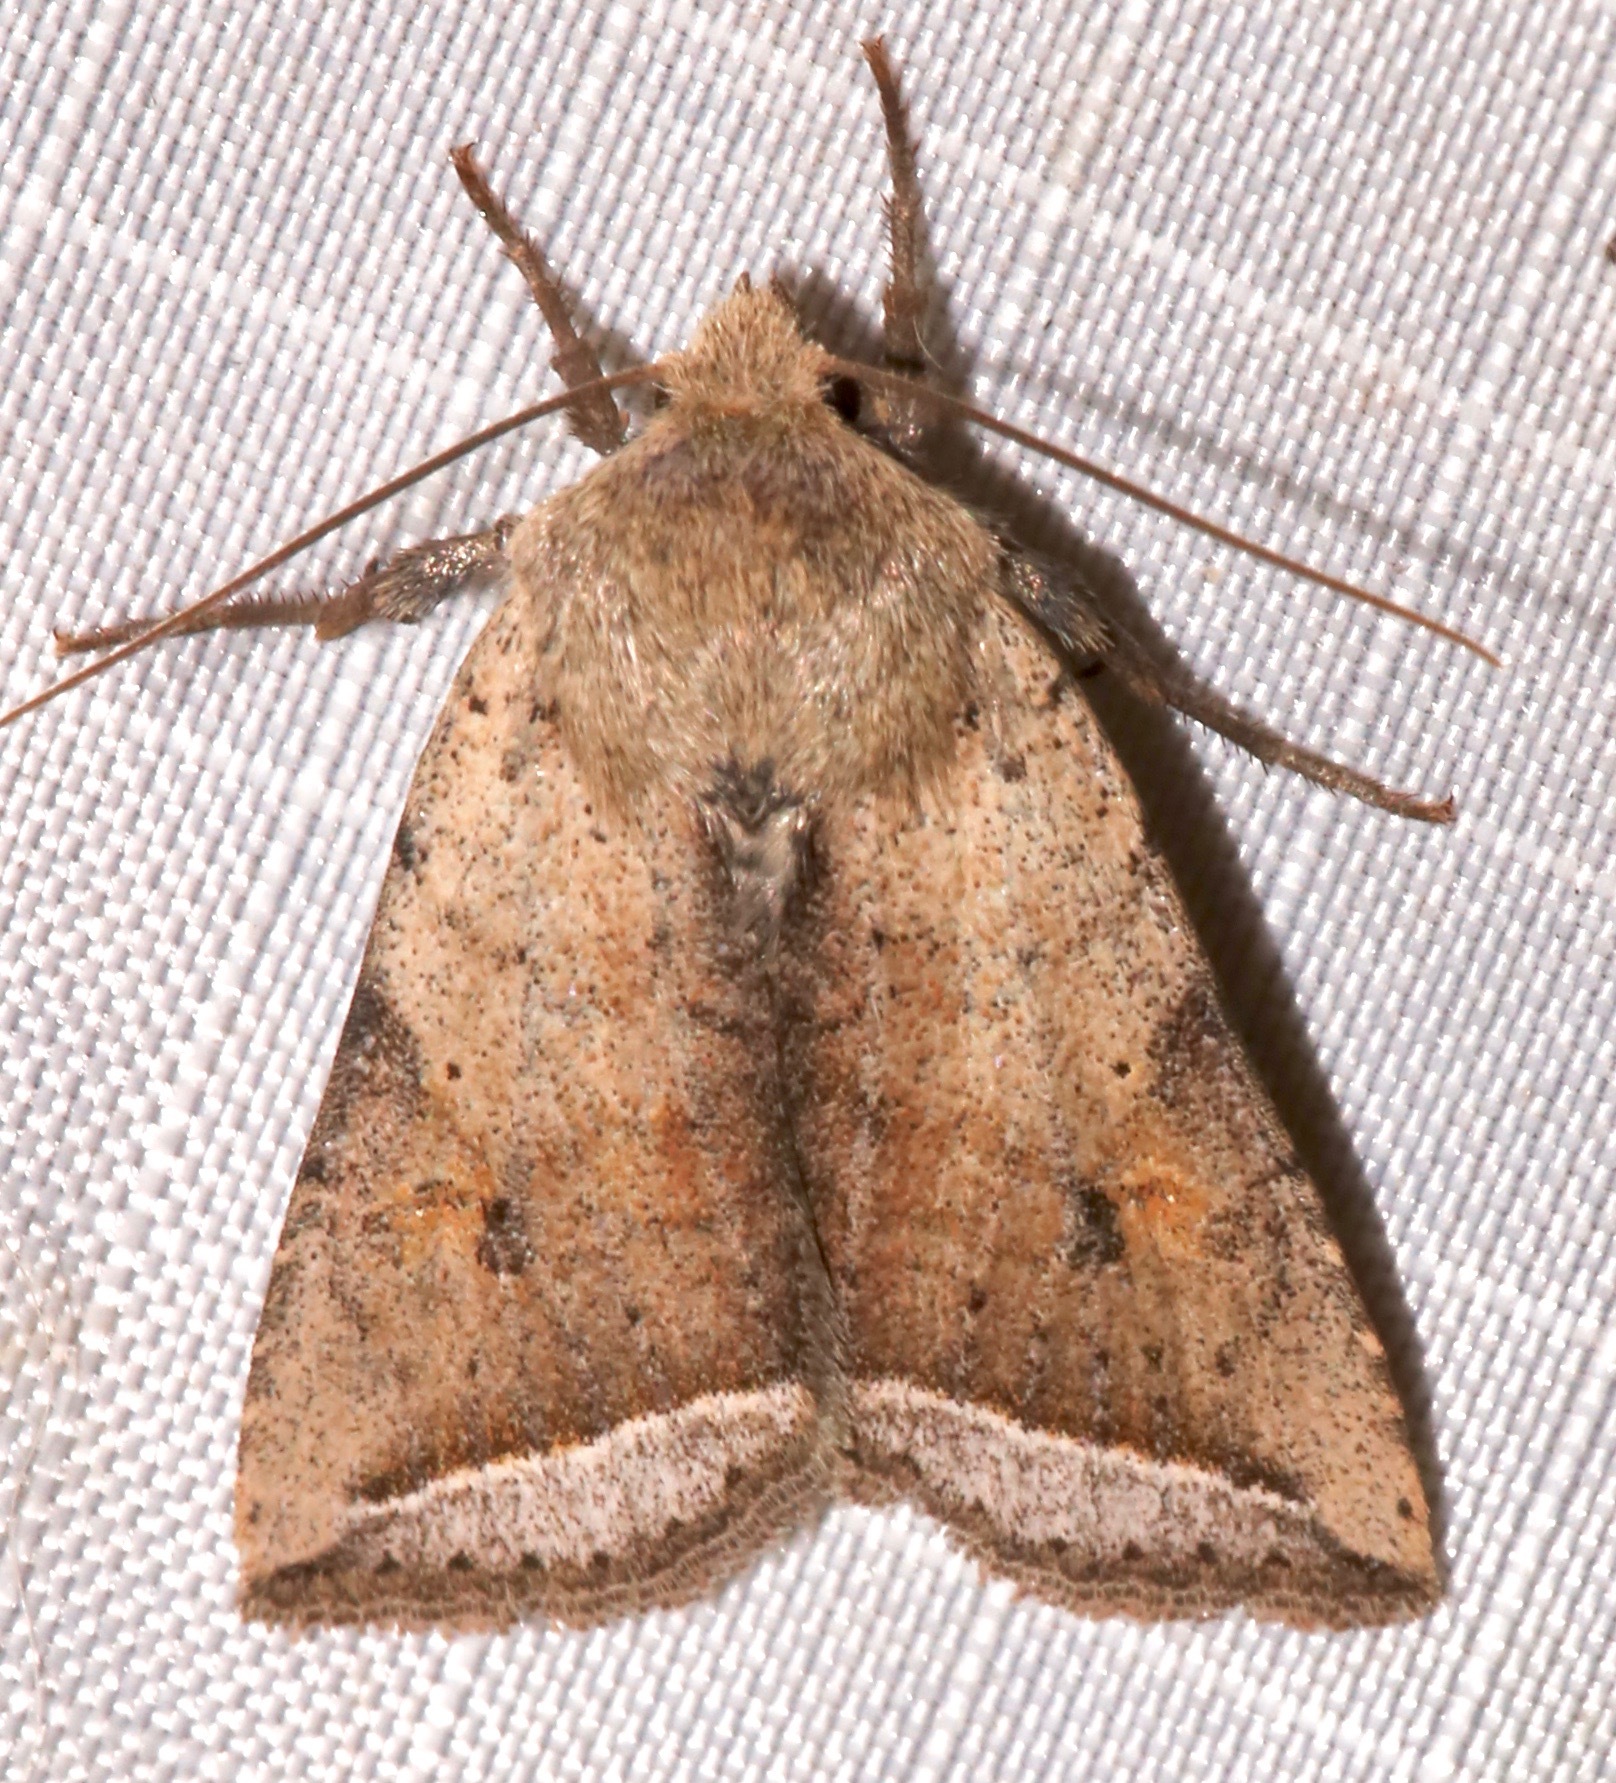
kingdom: Animalia
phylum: Arthropoda
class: Insecta
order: Lepidoptera
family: Noctuidae
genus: Eriopyga
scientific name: Eriopyga parallela
